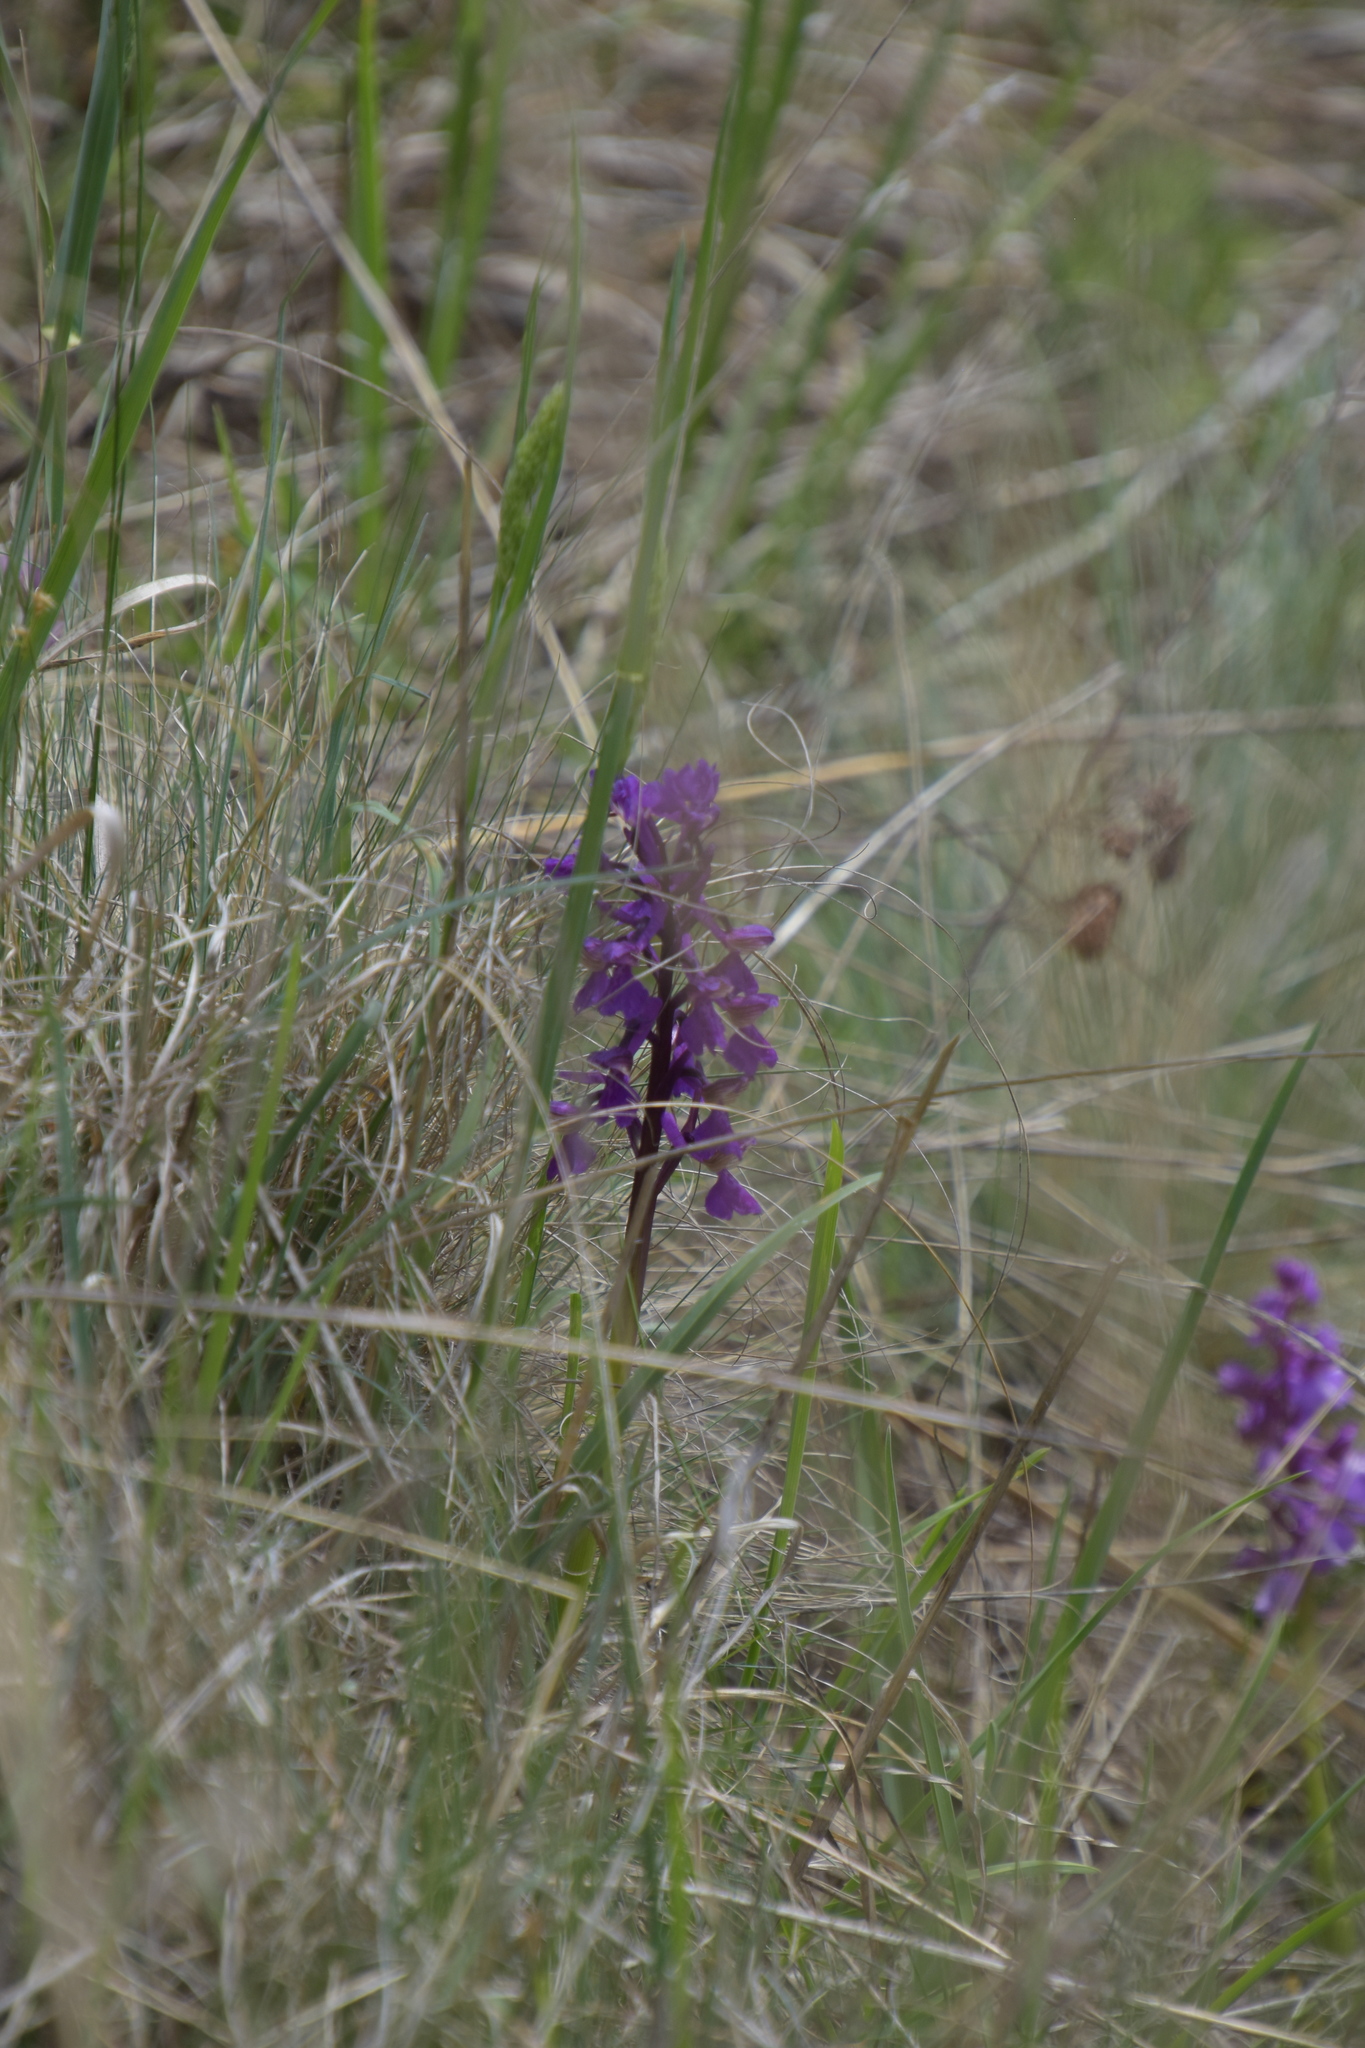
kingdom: Plantae
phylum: Tracheophyta
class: Liliopsida
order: Asparagales
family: Orchidaceae
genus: Anacamptis
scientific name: Anacamptis morio
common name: Green-winged orchid
